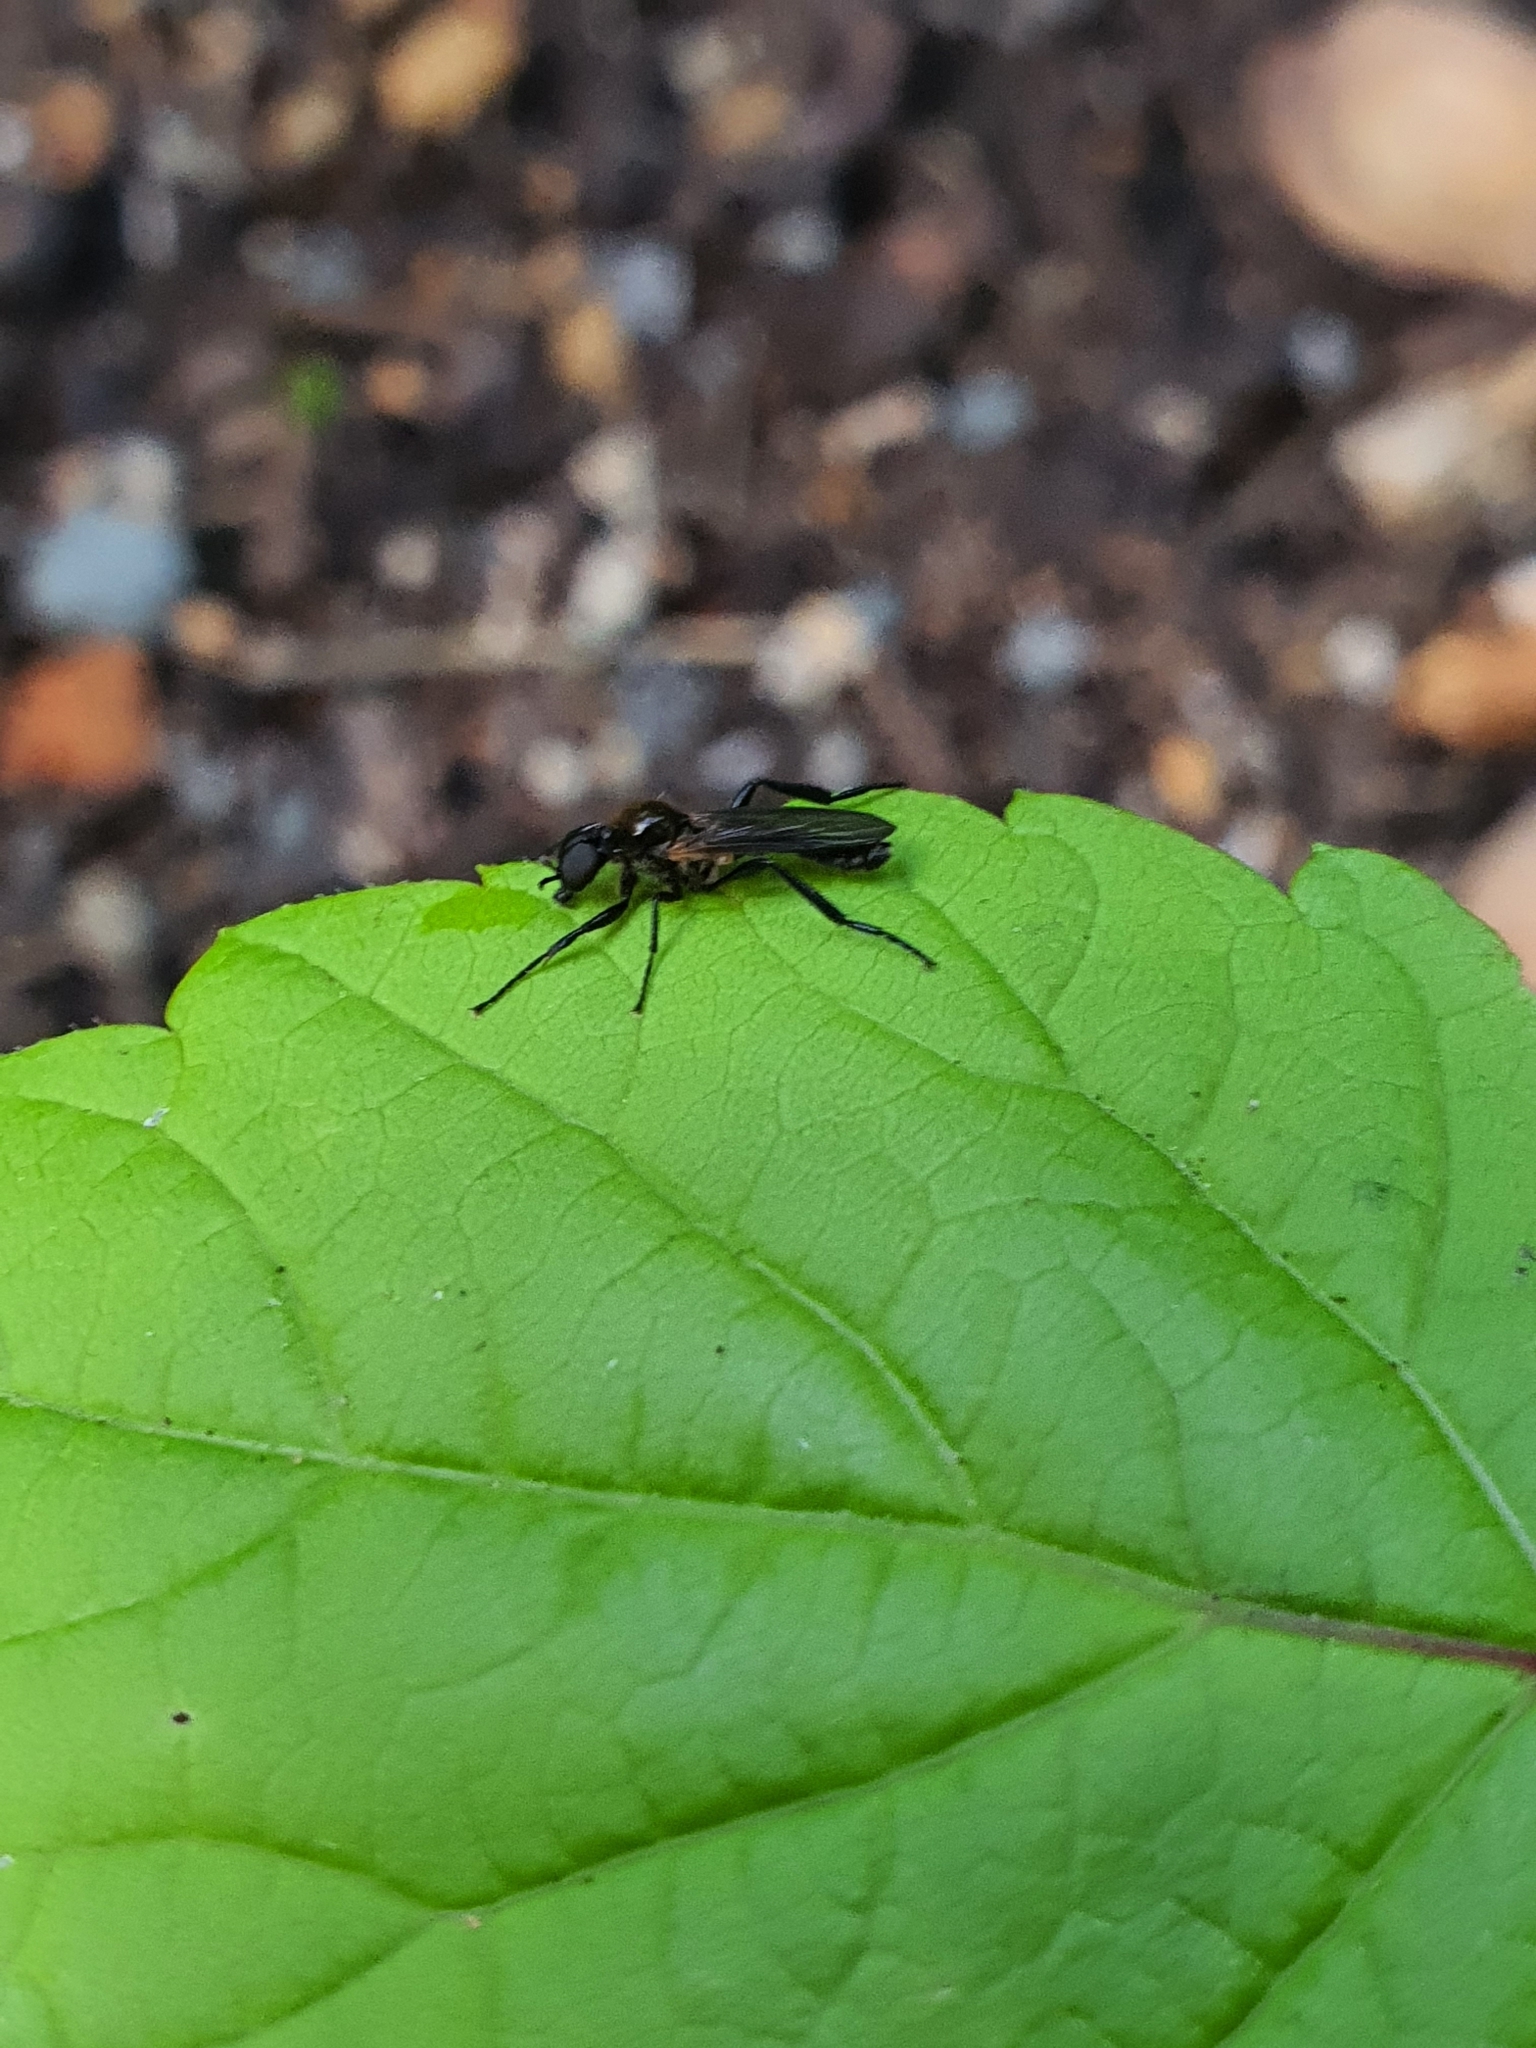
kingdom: Animalia
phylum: Arthropoda
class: Insecta
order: Diptera
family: Bibionidae
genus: Bibio
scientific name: Bibio imitator
